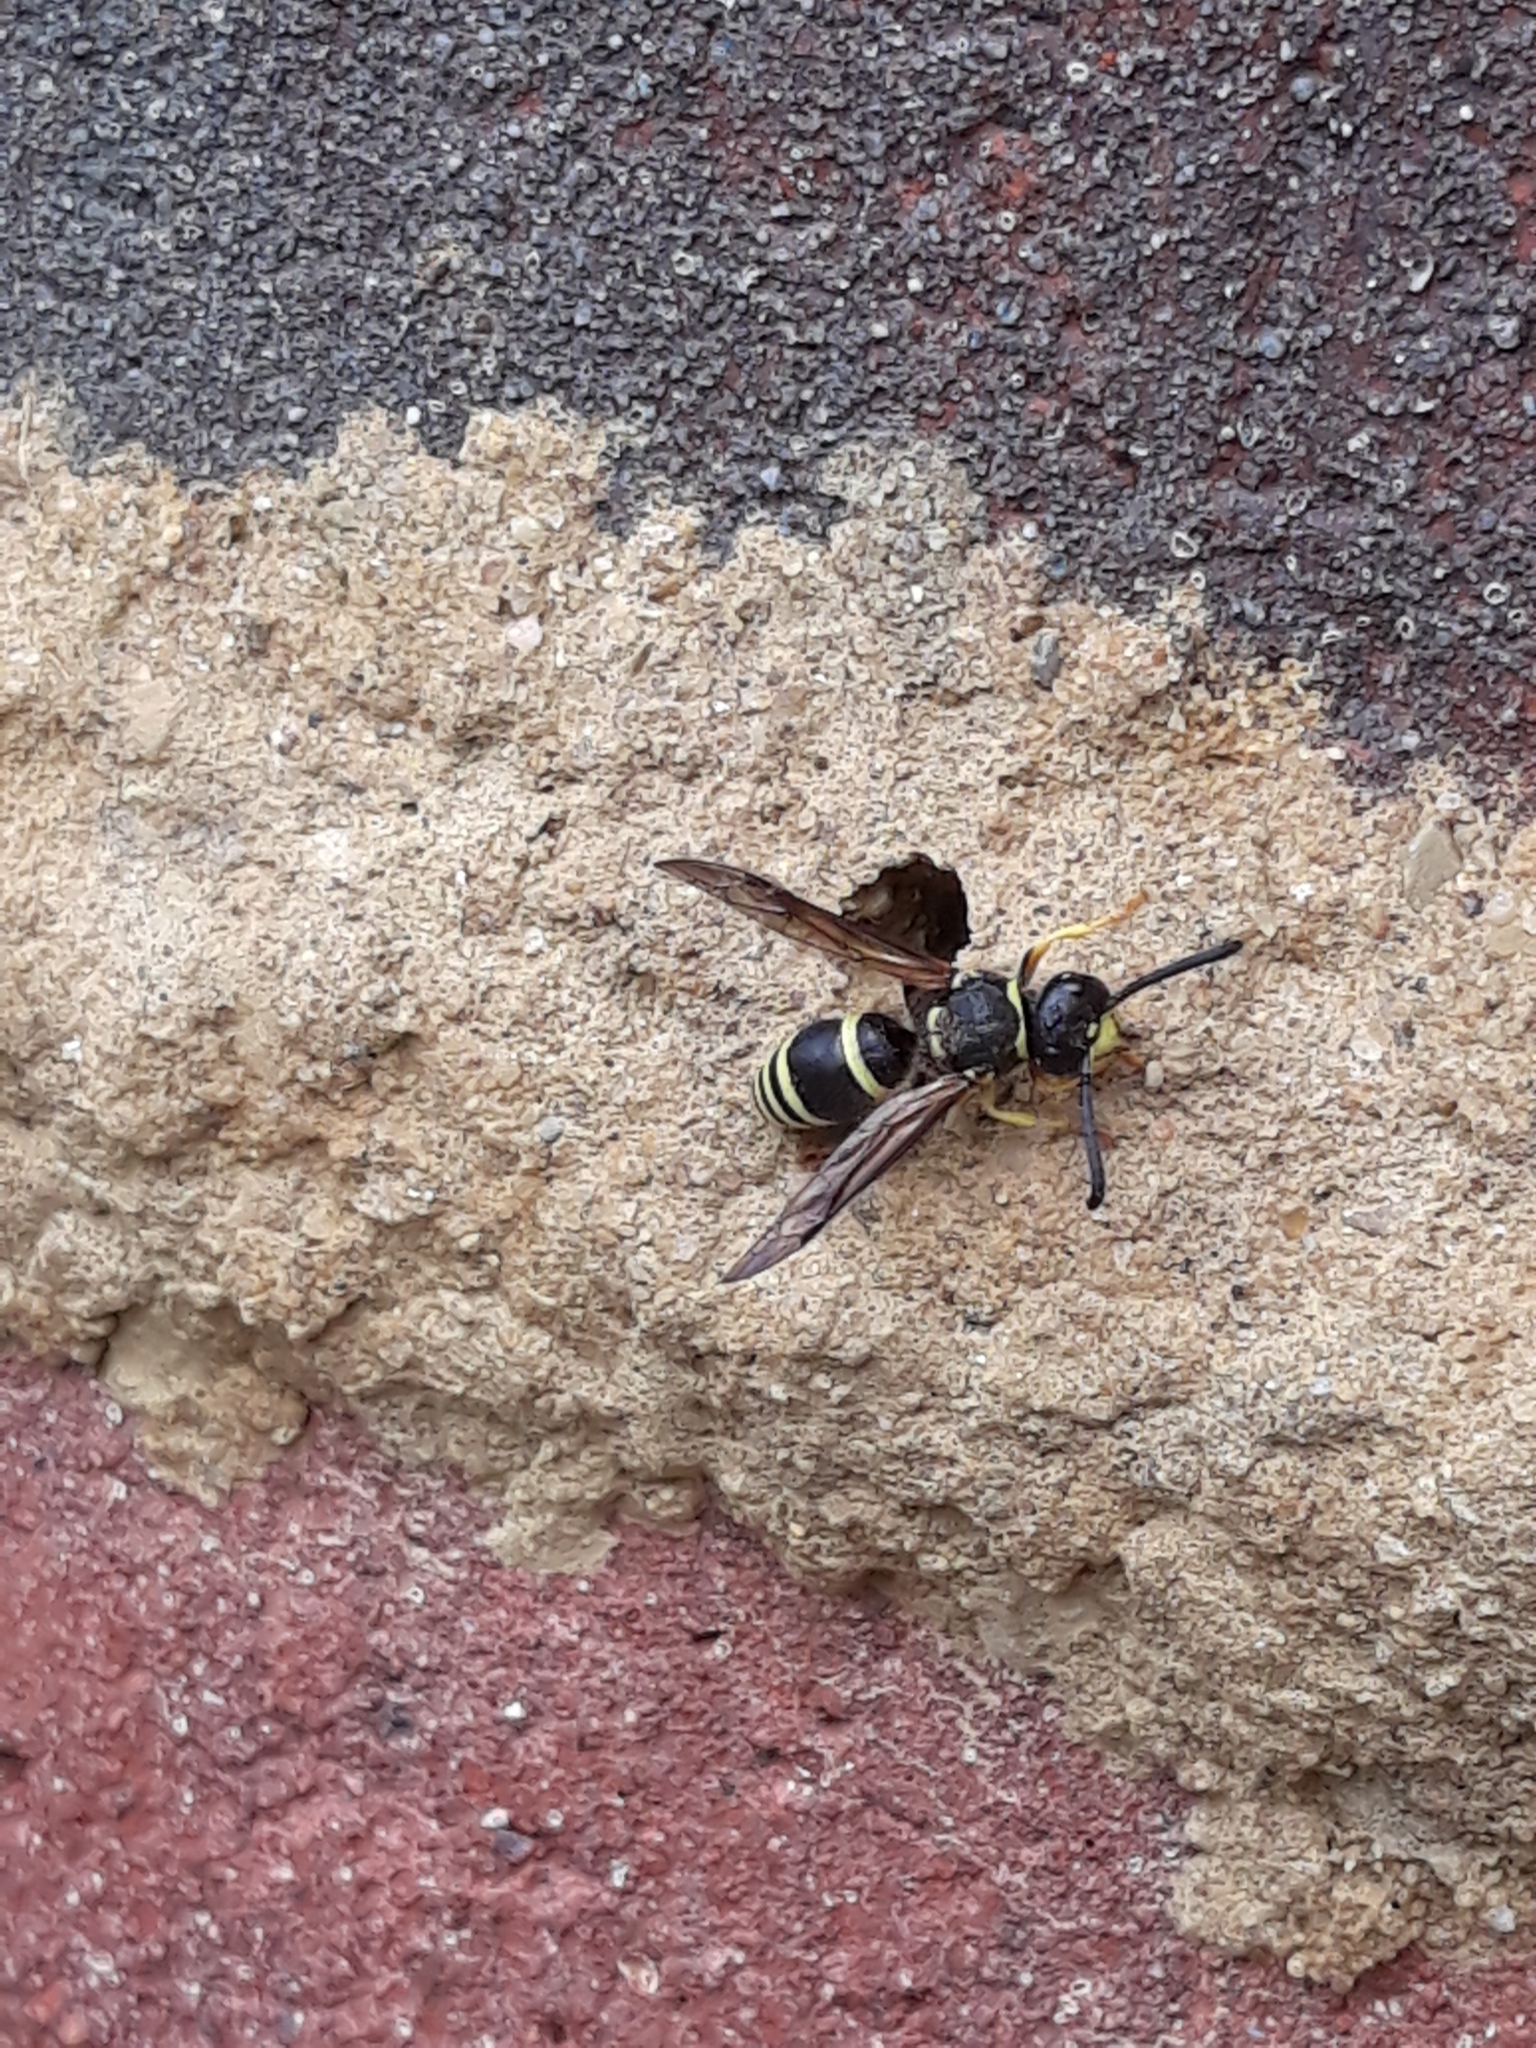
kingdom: Animalia
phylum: Arthropoda
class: Insecta
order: Hymenoptera
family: Vespidae
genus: Ancistrocerus
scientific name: Ancistrocerus waldenii
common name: Walden’s potter wasp
